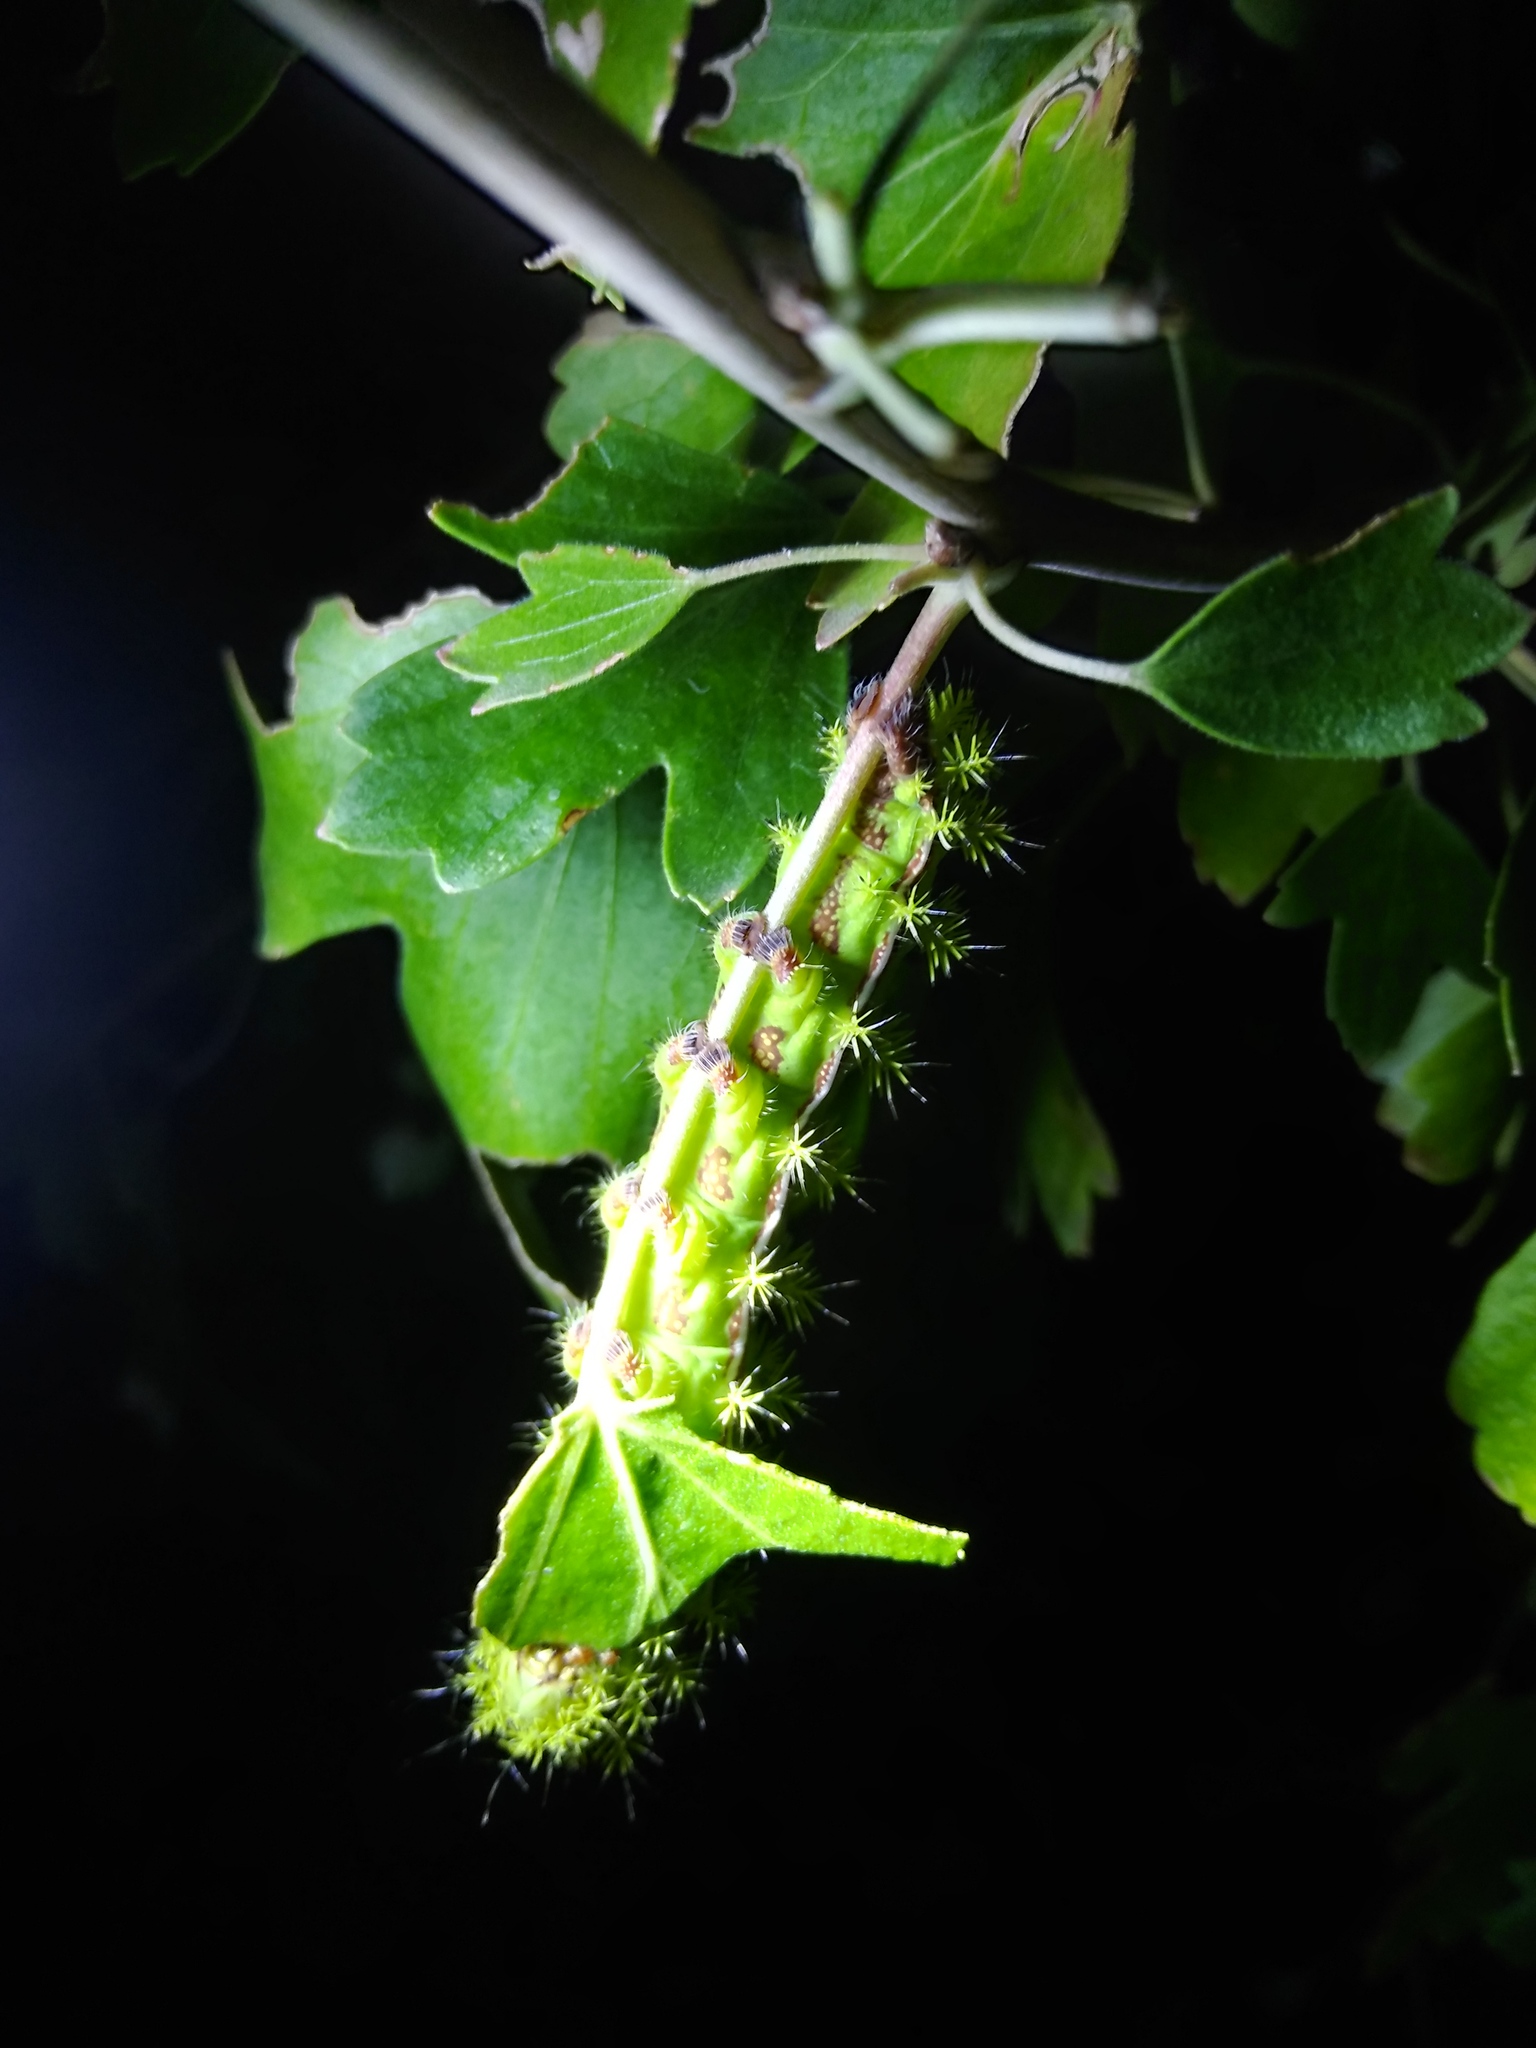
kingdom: Animalia
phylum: Arthropoda
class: Insecta
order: Lepidoptera
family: Saturniidae
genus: Automeris
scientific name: Automeris io
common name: Io moth
